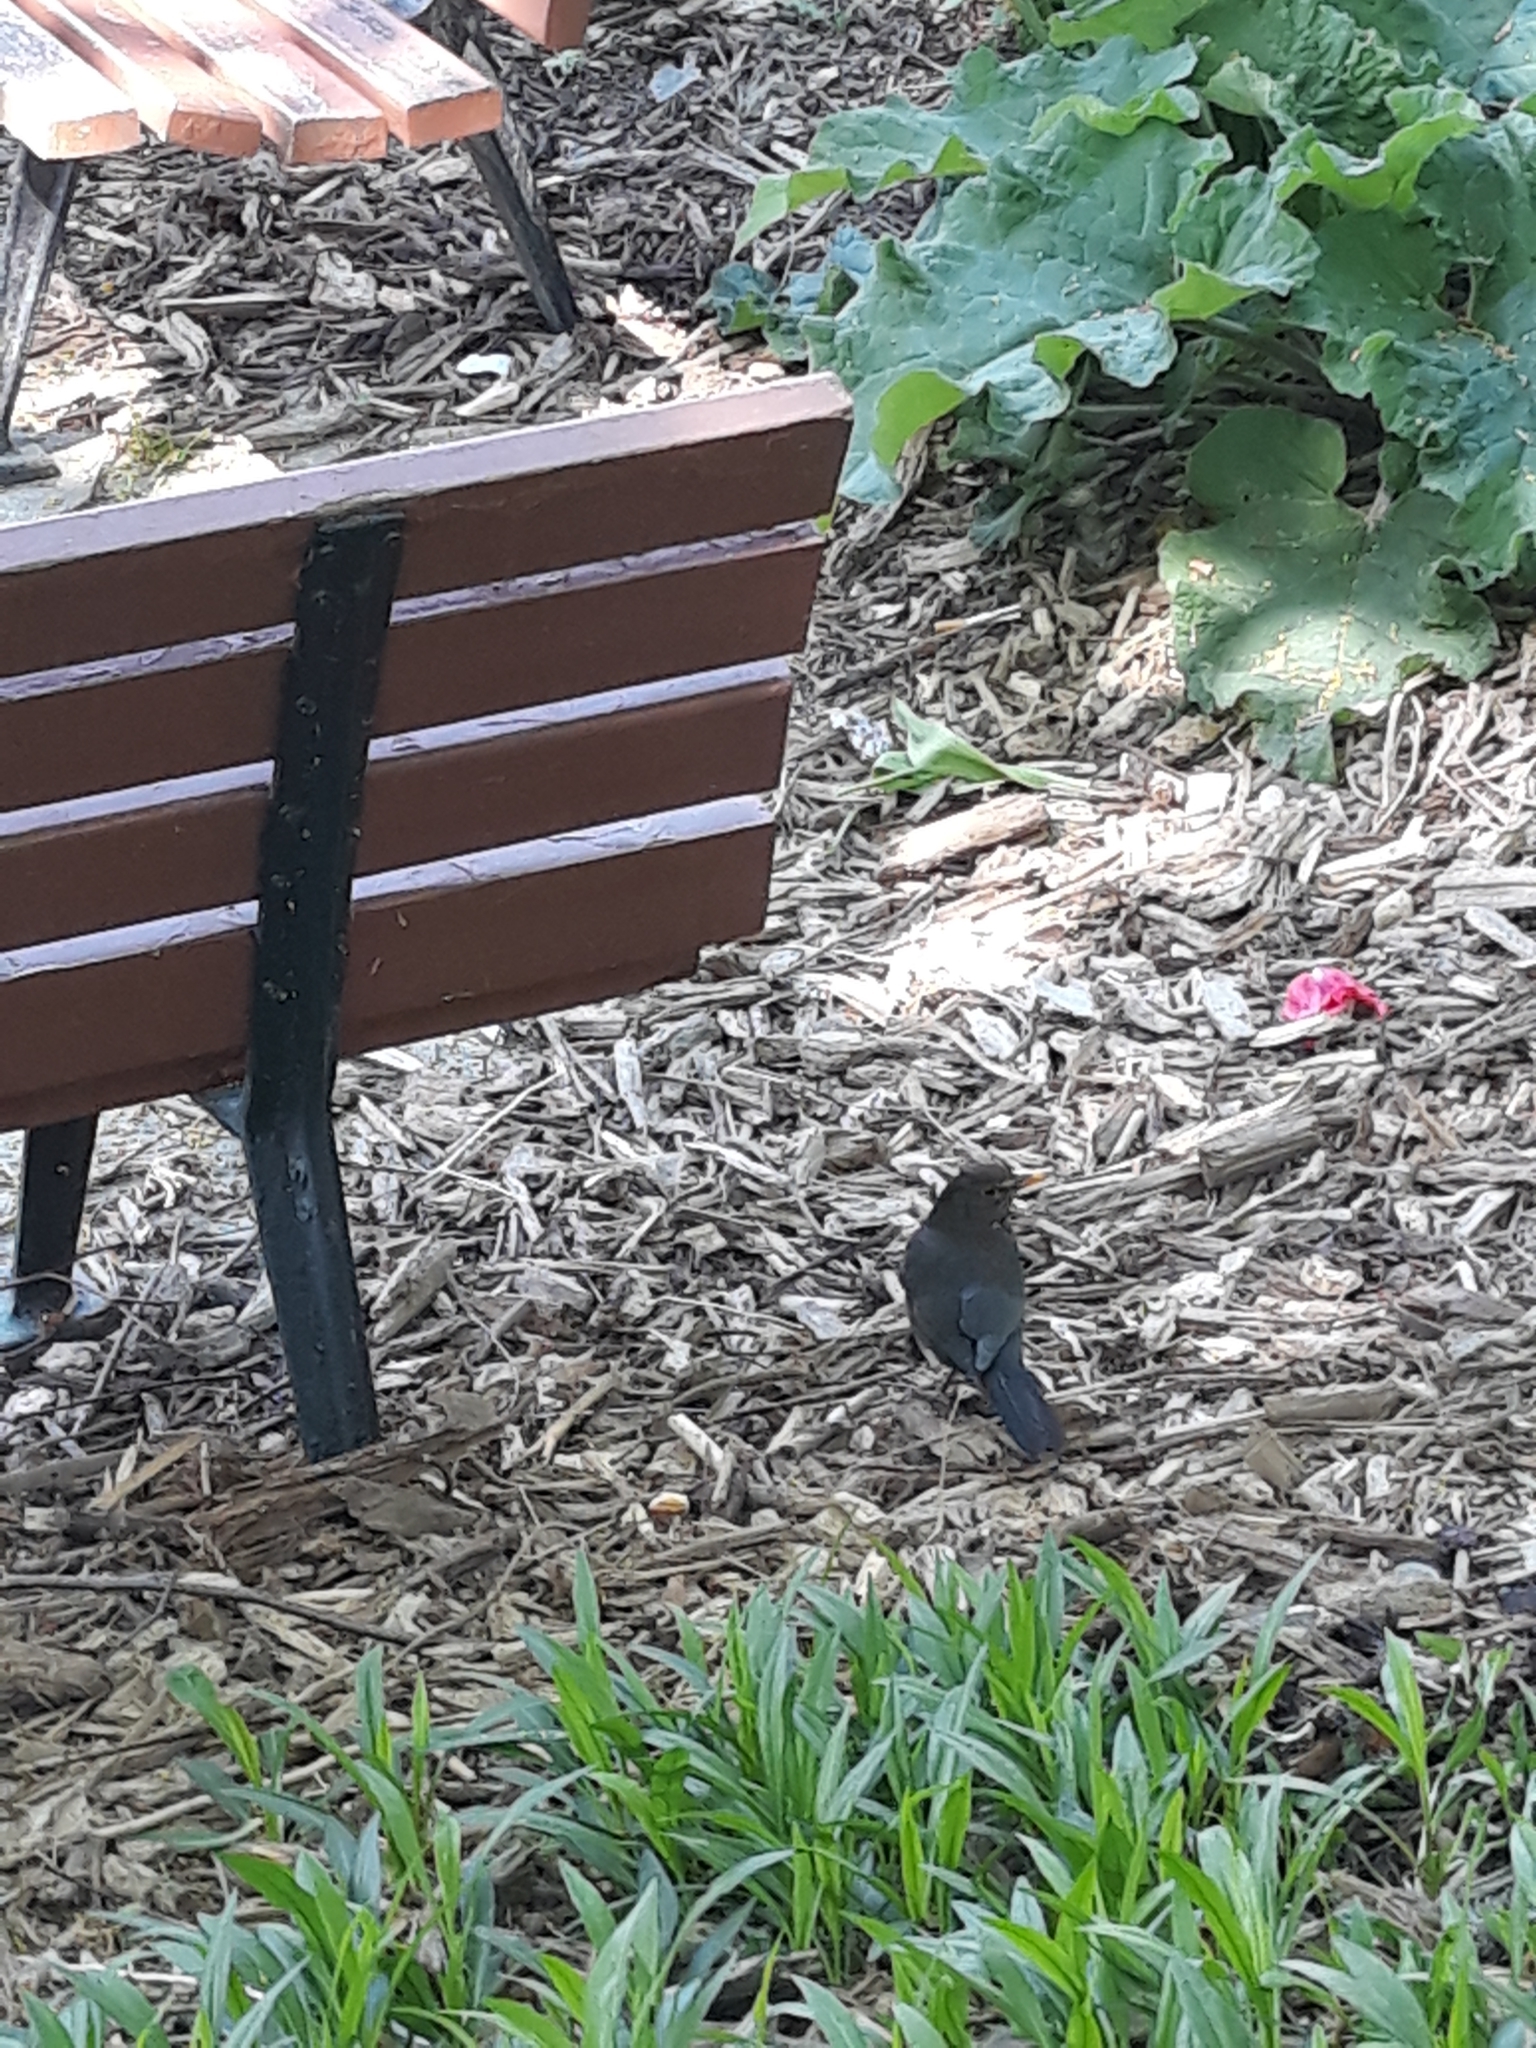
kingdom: Animalia
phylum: Chordata
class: Aves
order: Passeriformes
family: Turdidae
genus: Turdus
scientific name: Turdus merula
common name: Common blackbird
